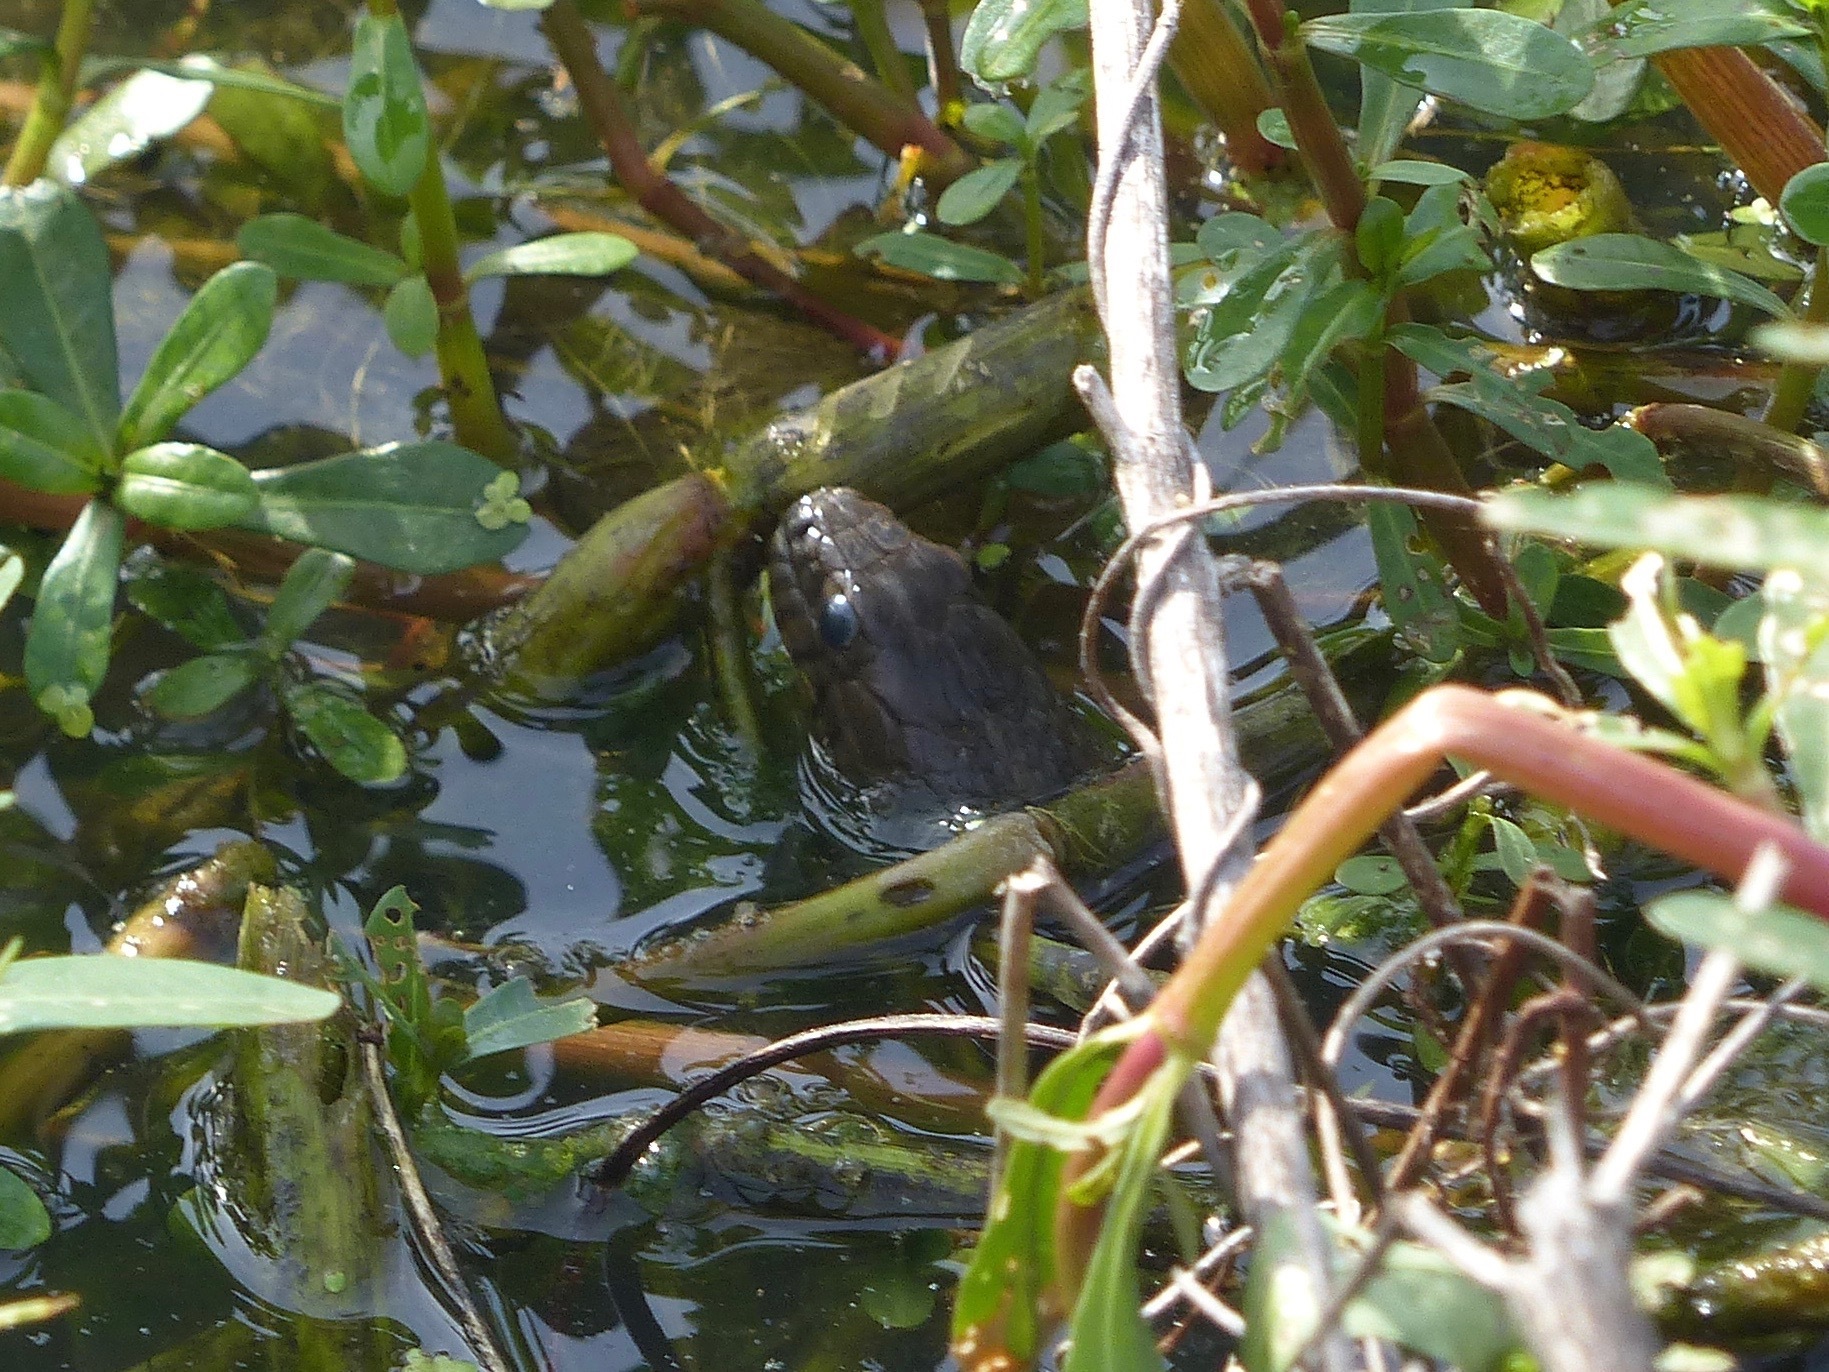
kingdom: Animalia
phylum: Chordata
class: Squamata
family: Colubridae
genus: Nerodia
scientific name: Nerodia cyclopion
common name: Mississippi green water snake
